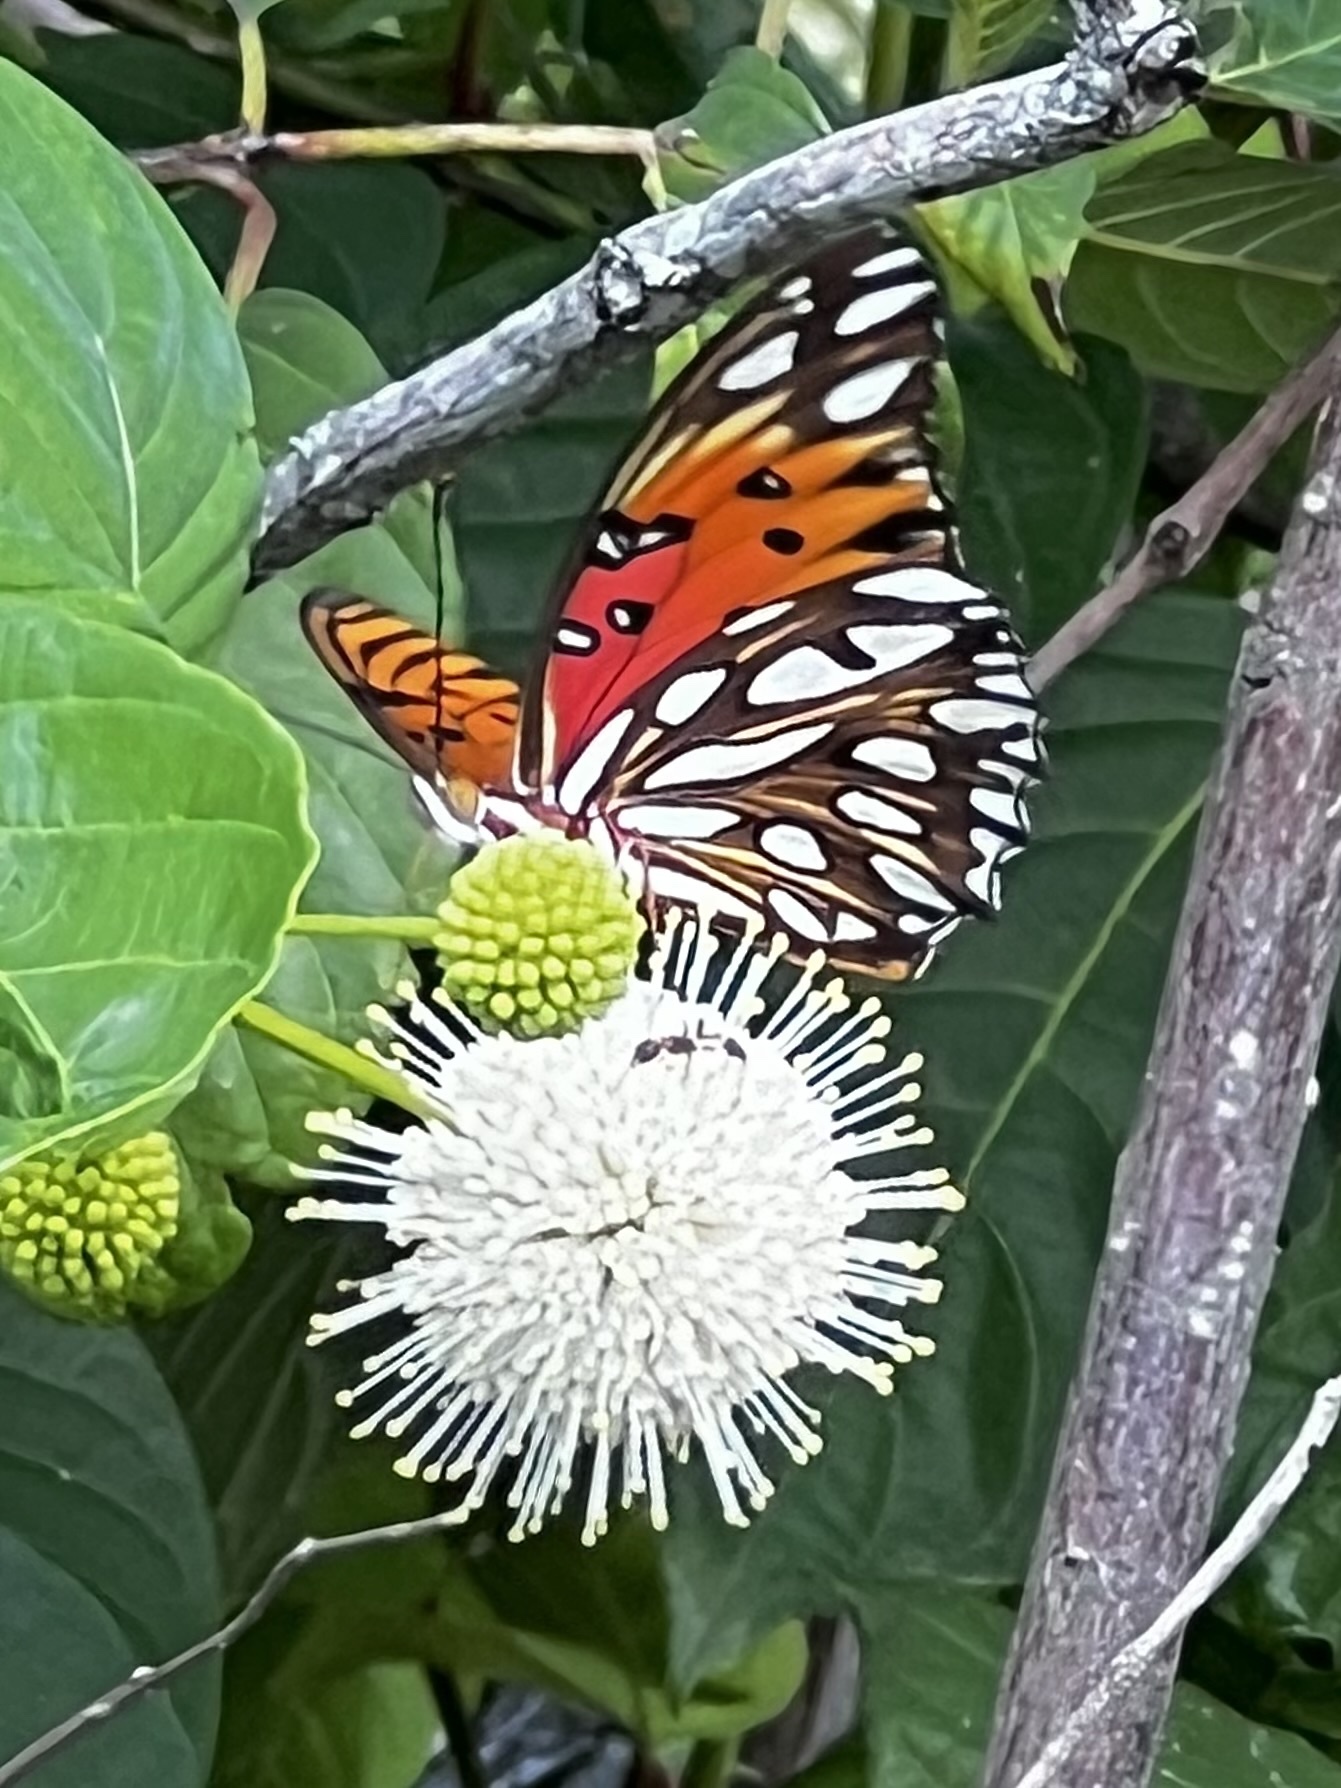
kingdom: Animalia
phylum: Arthropoda
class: Insecta
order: Lepidoptera
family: Nymphalidae
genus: Dione
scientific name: Dione vanillae
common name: Gulf fritillary
